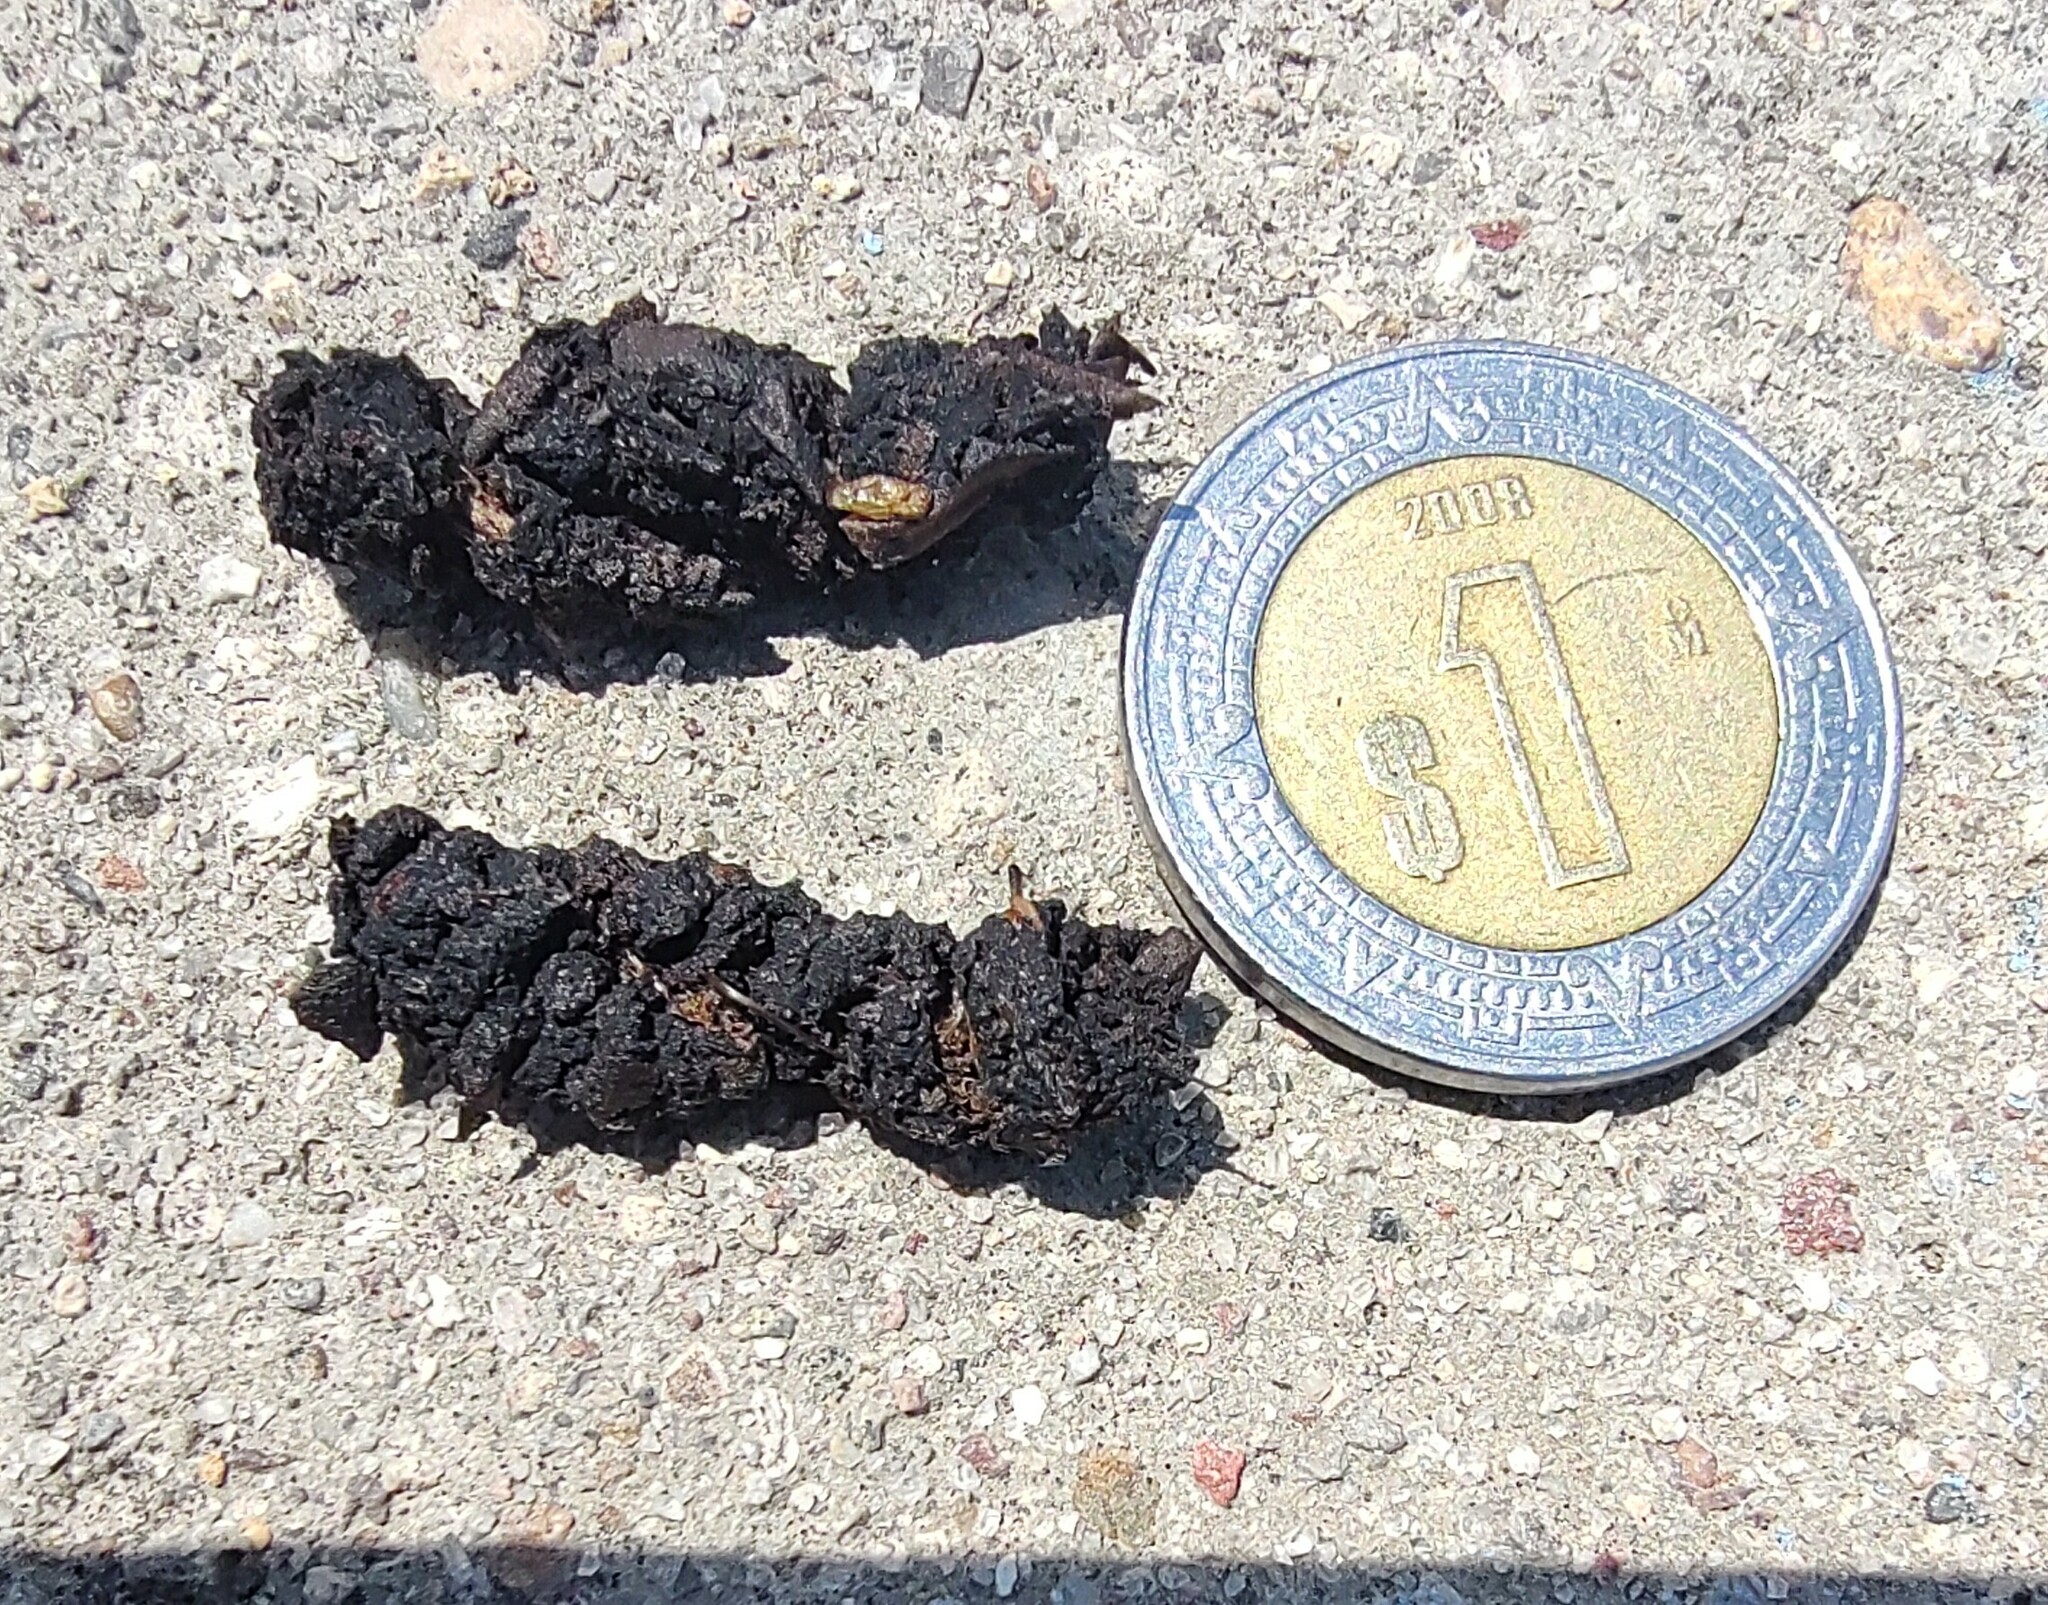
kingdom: Animalia
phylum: Chordata
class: Mammalia
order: Carnivora
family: Procyonidae
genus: Bassariscus
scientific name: Bassariscus astutus
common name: Ringtail
